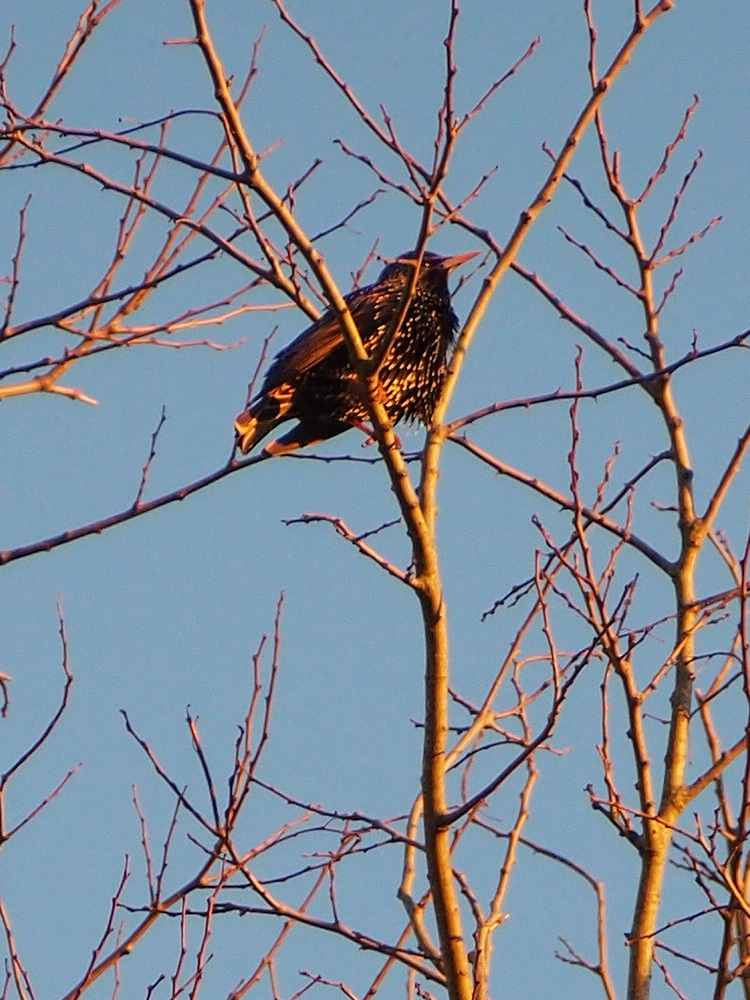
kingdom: Animalia
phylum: Chordata
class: Aves
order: Passeriformes
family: Sturnidae
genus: Sturnus
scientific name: Sturnus vulgaris
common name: Common starling
